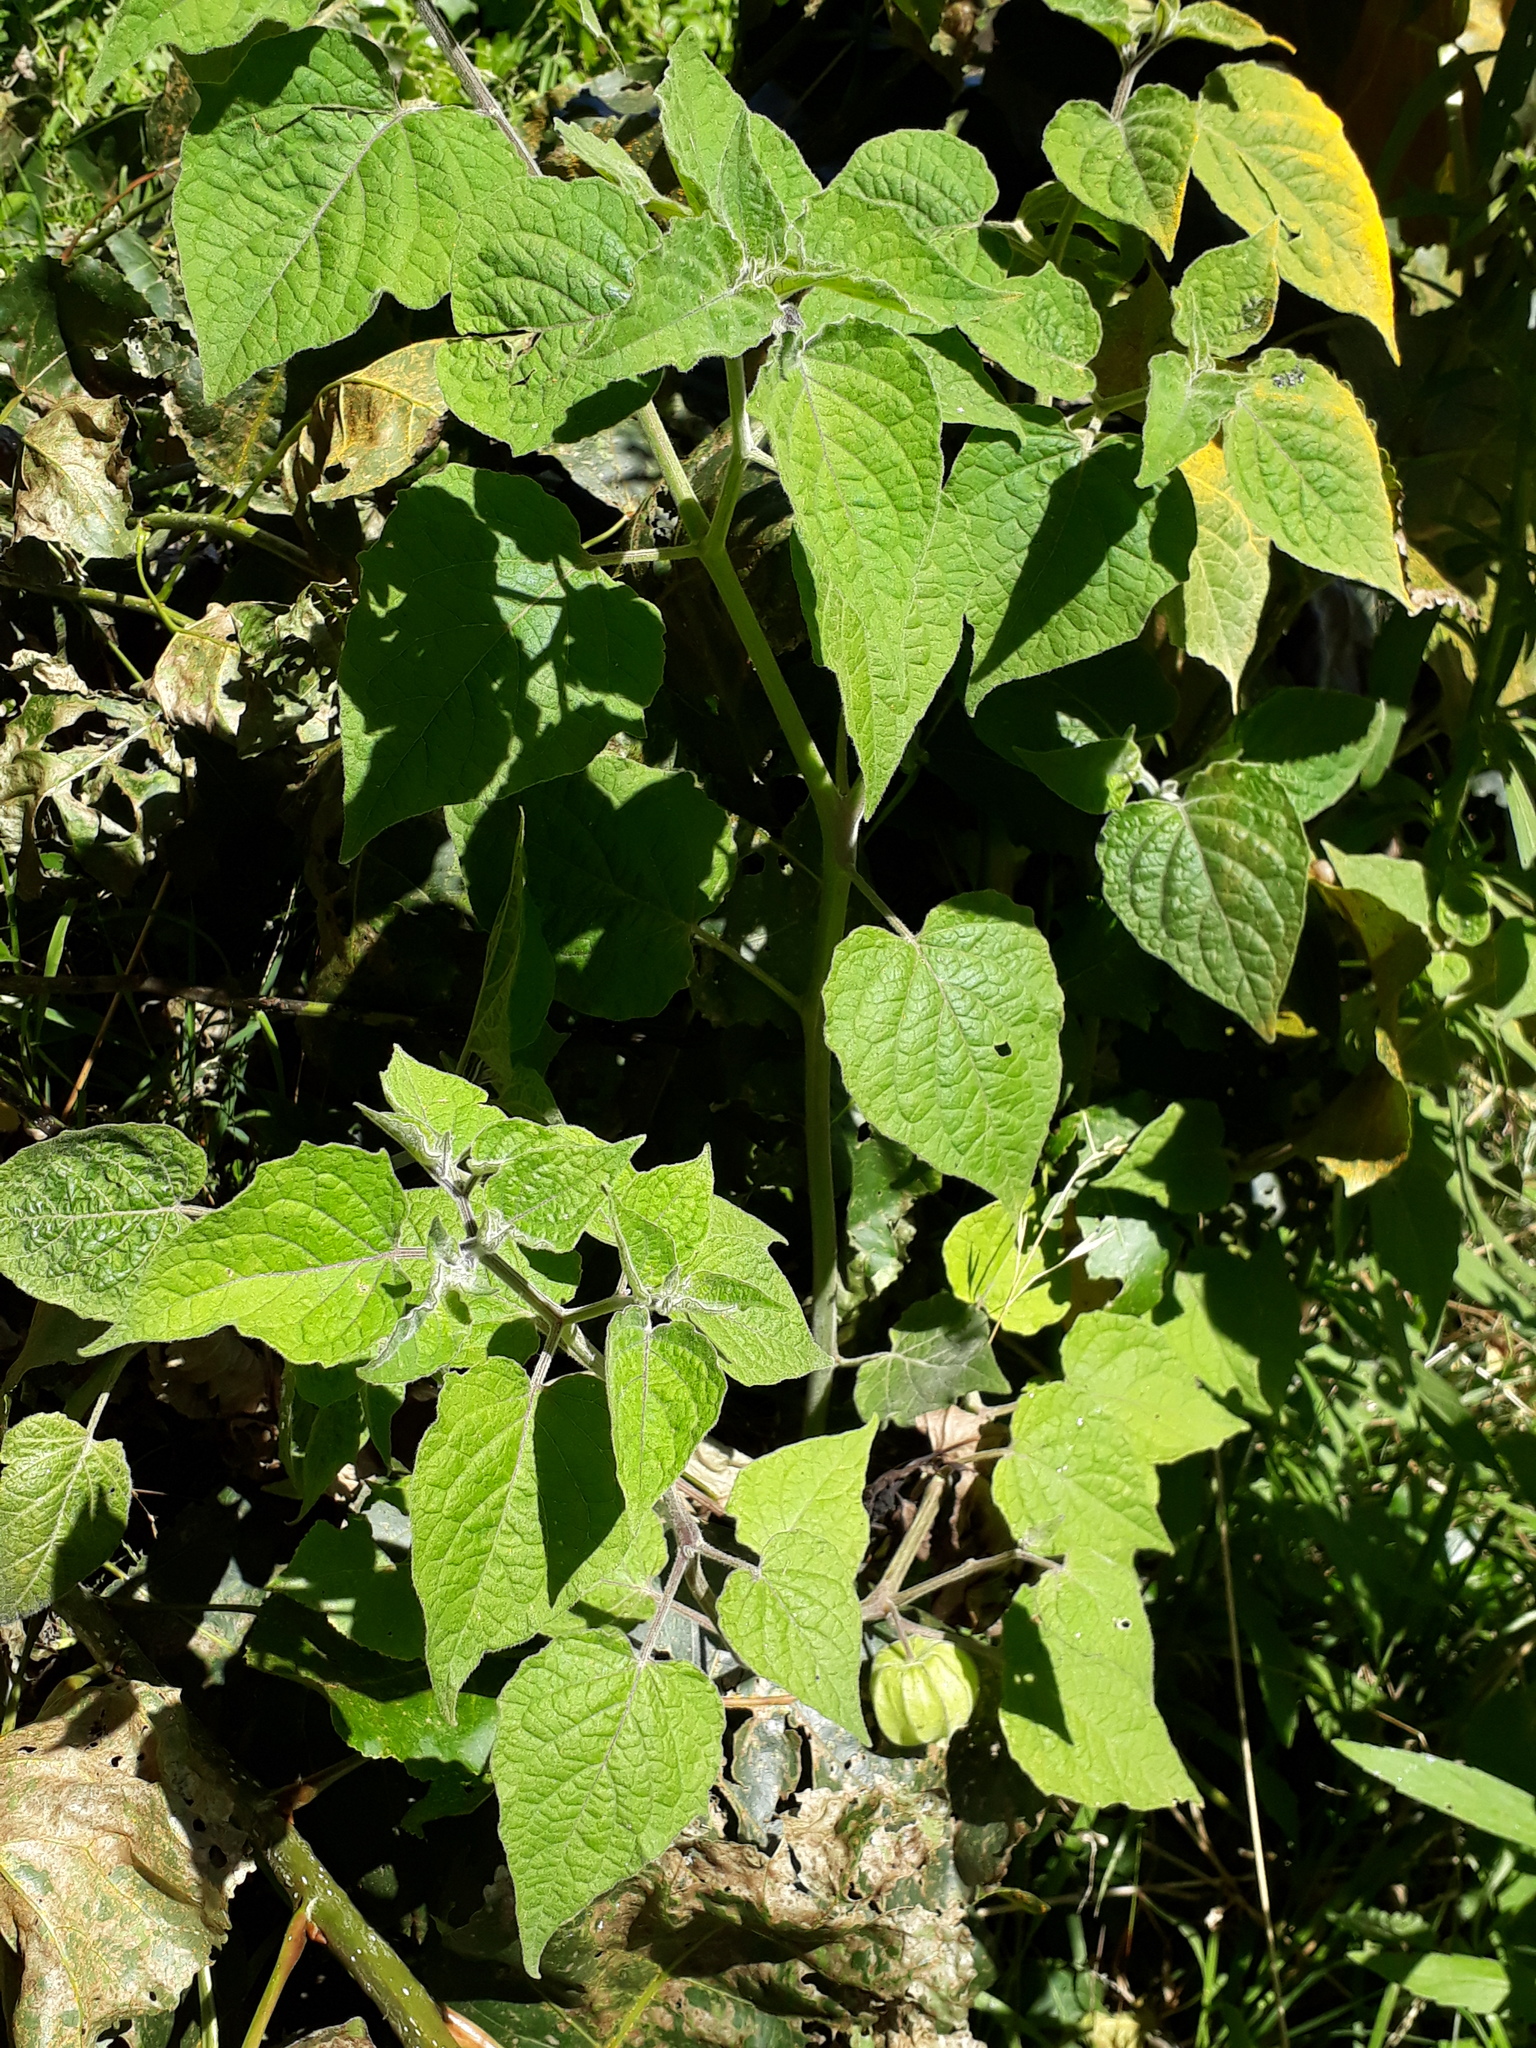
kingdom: Plantae
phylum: Tracheophyta
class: Magnoliopsida
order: Solanales
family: Solanaceae
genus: Physalis
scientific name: Physalis peruviana
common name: Cape-gooseberry
